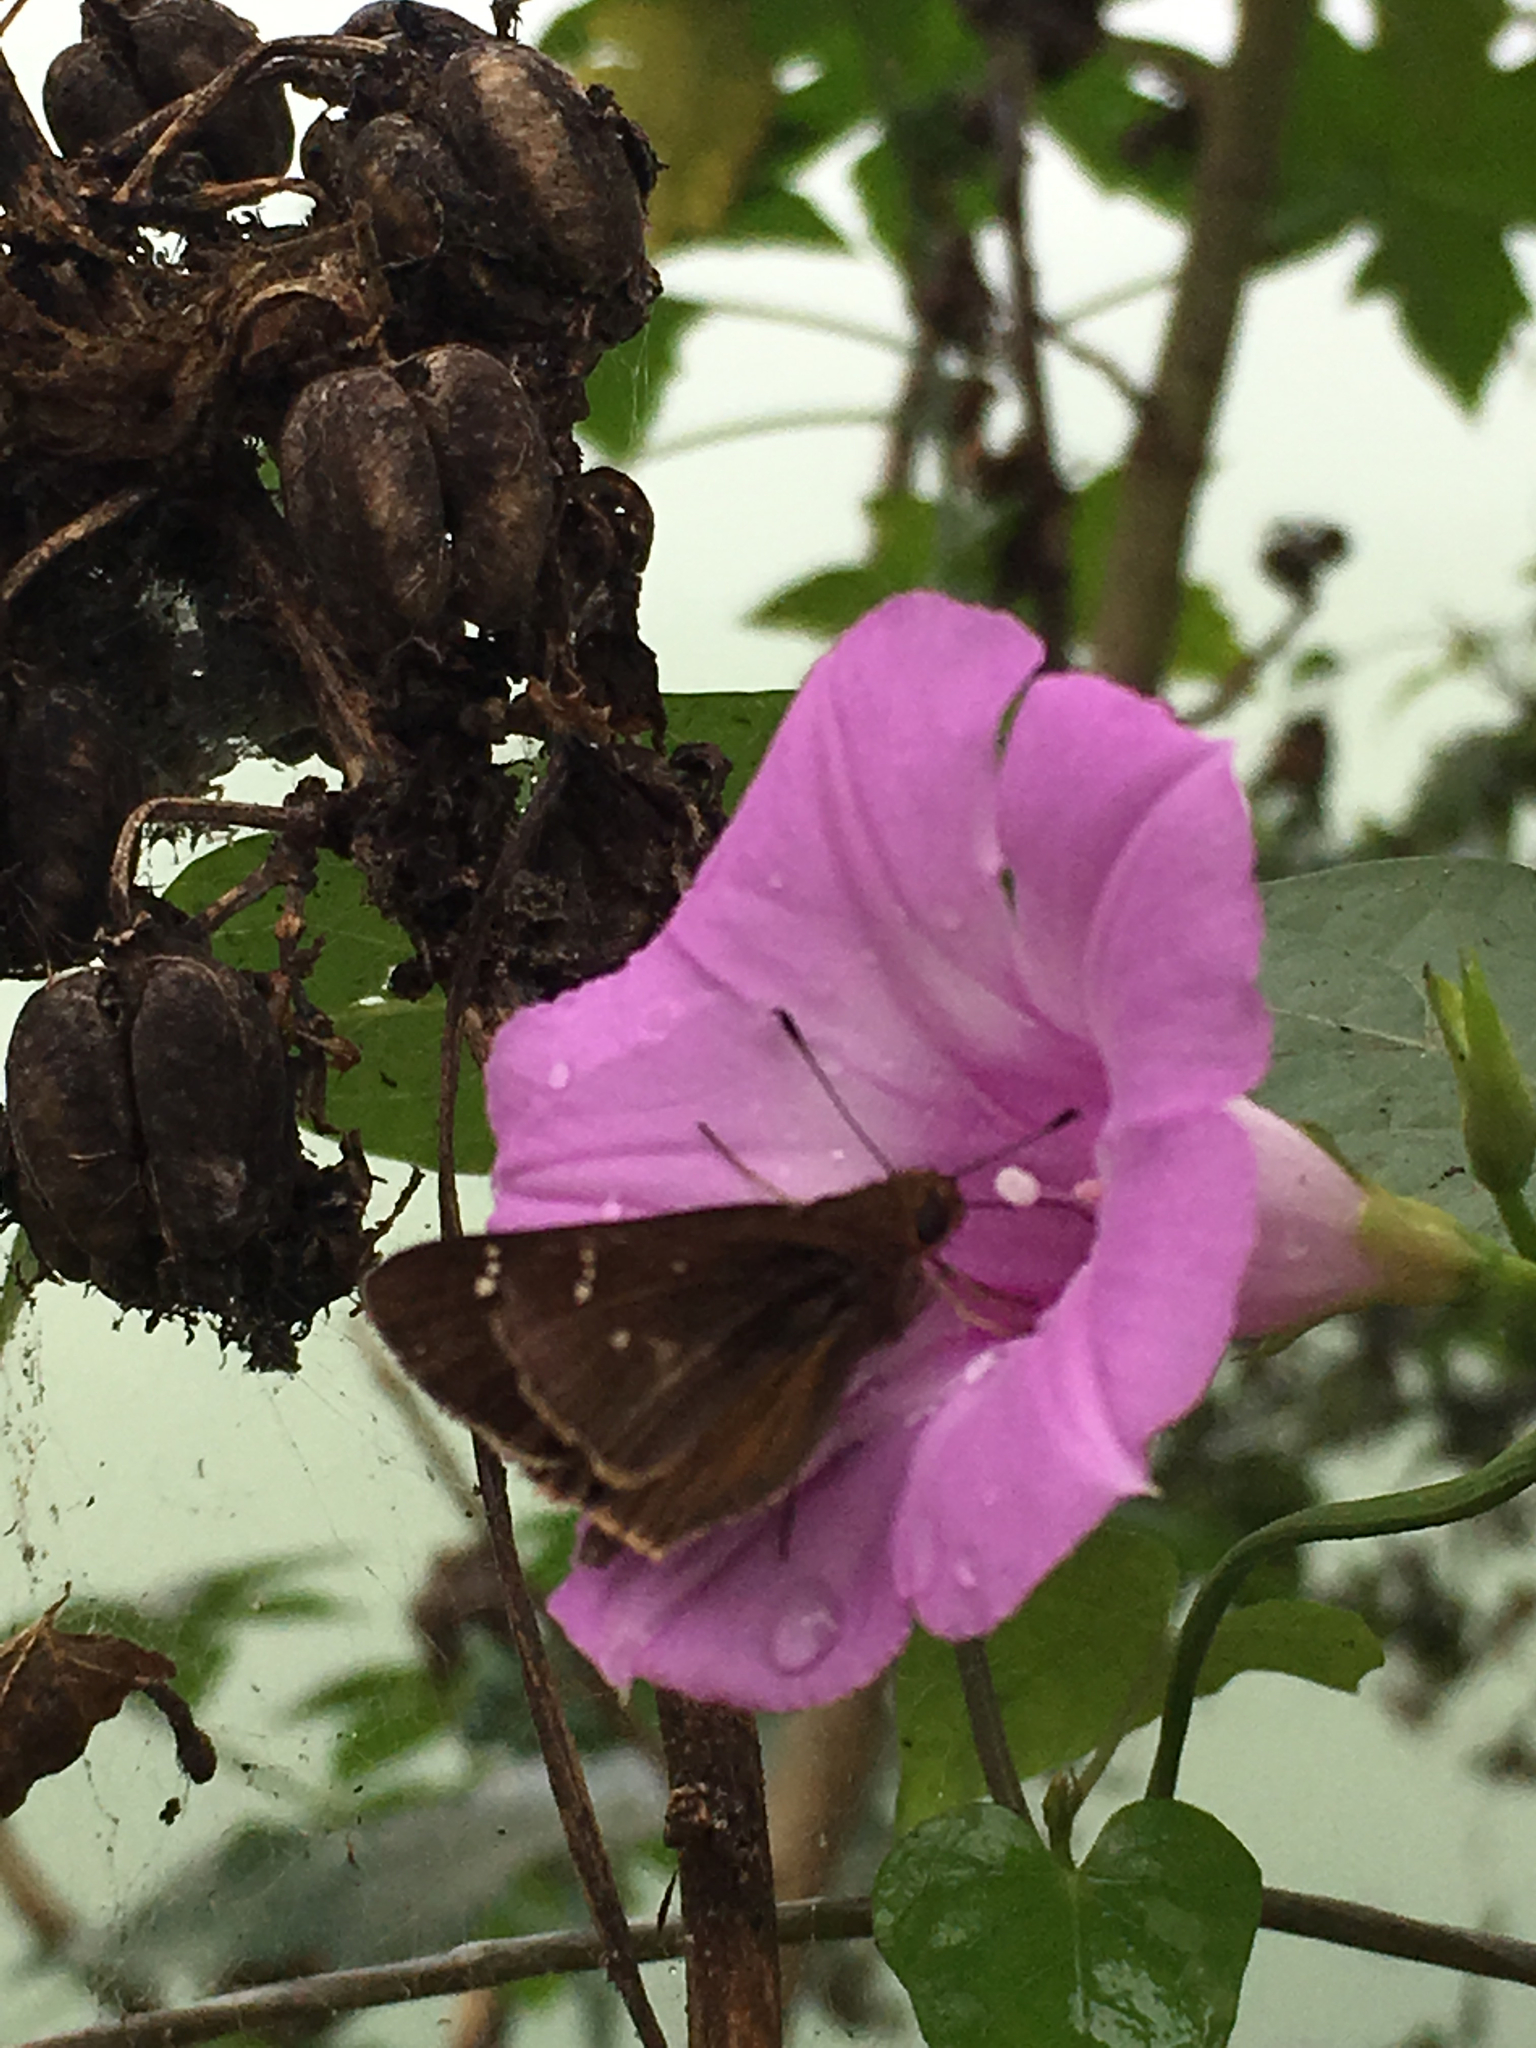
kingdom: Animalia
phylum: Arthropoda
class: Insecta
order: Lepidoptera
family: Hesperiidae
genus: Lerema
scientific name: Lerema accius
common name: Clouded skipper
